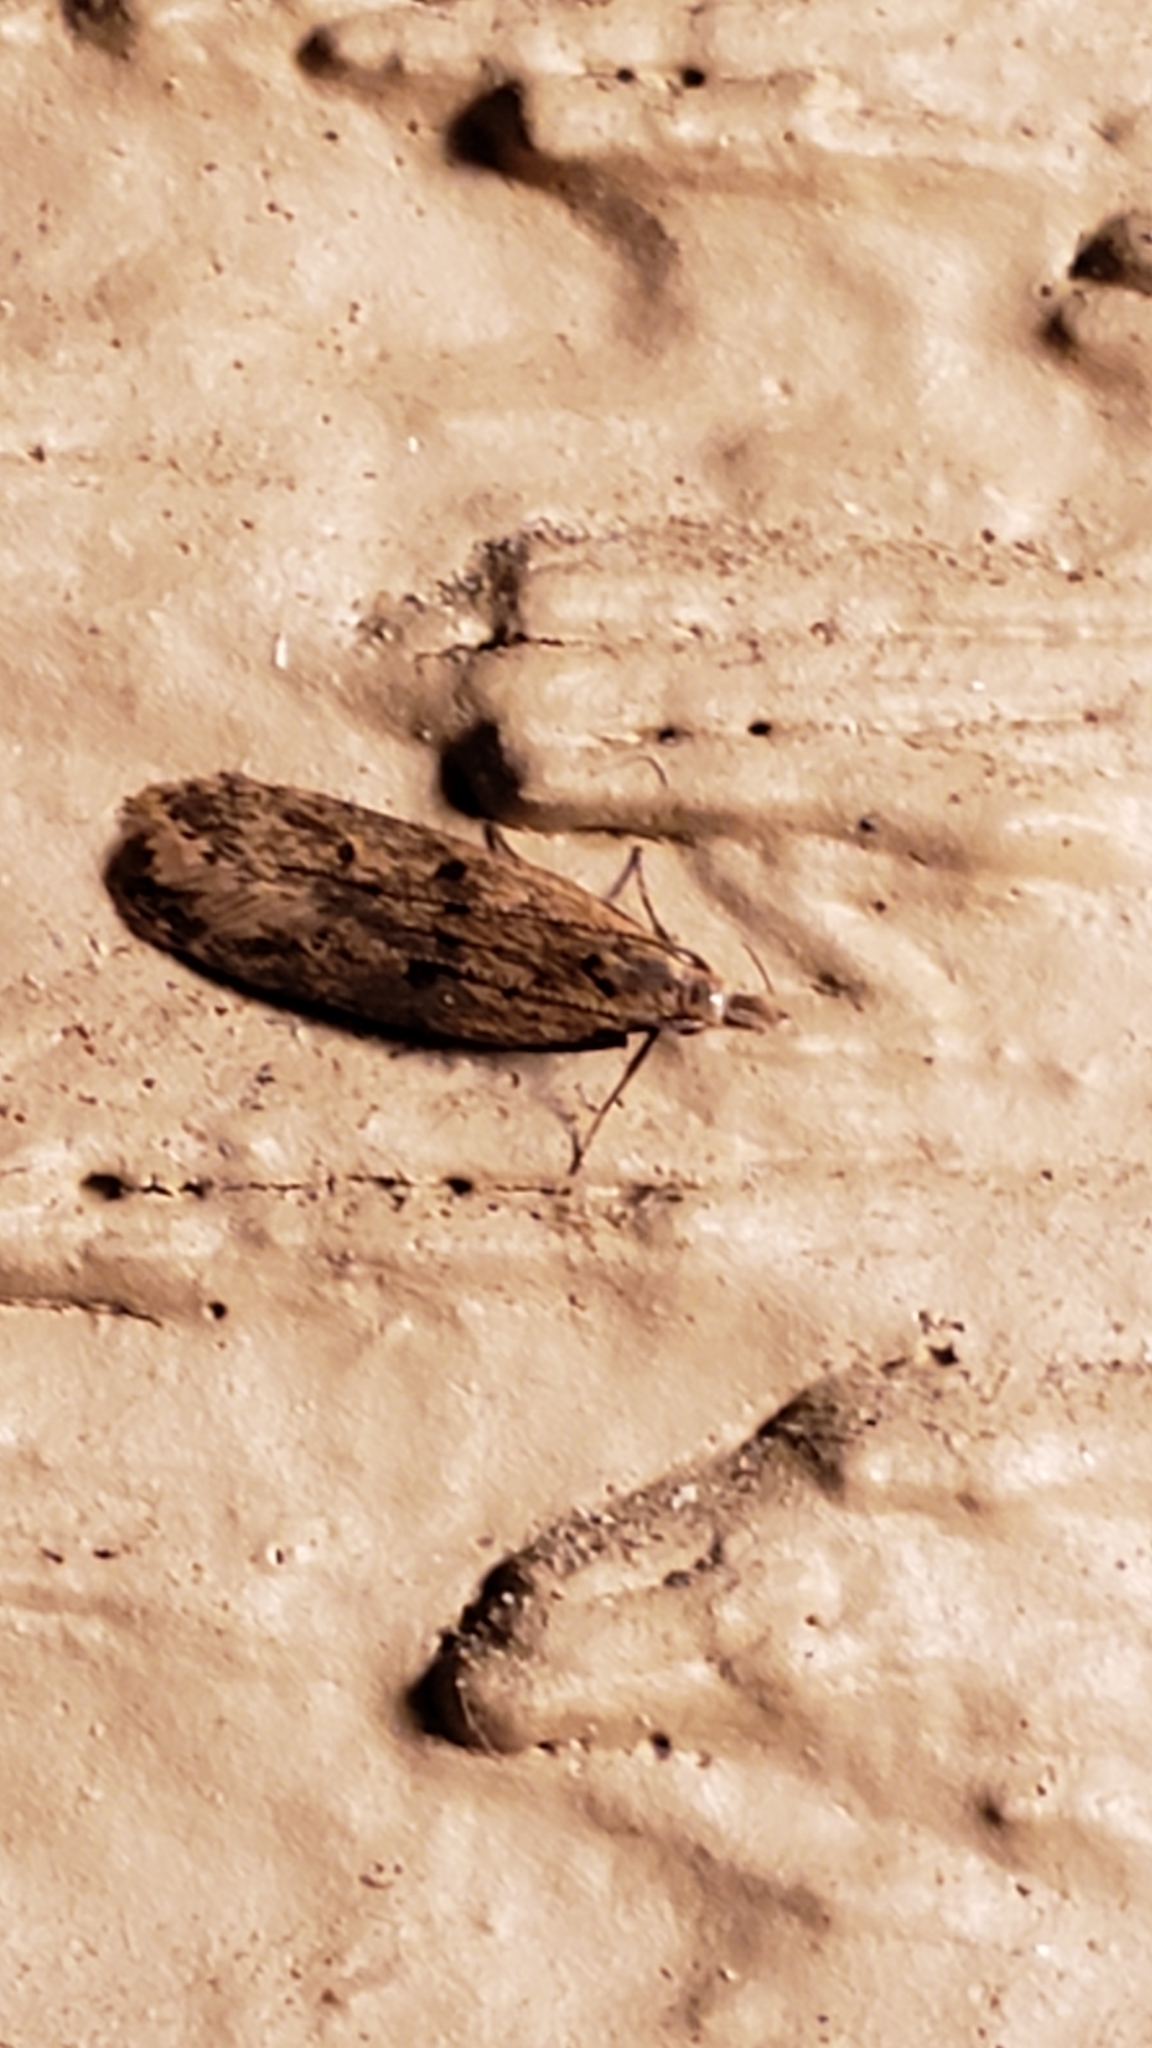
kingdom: Animalia
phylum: Arthropoda
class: Insecta
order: Lepidoptera
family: Gelechiidae
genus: Dichomeris
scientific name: Dichomeris punctipennella
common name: Many-spotted dichomeris moth
